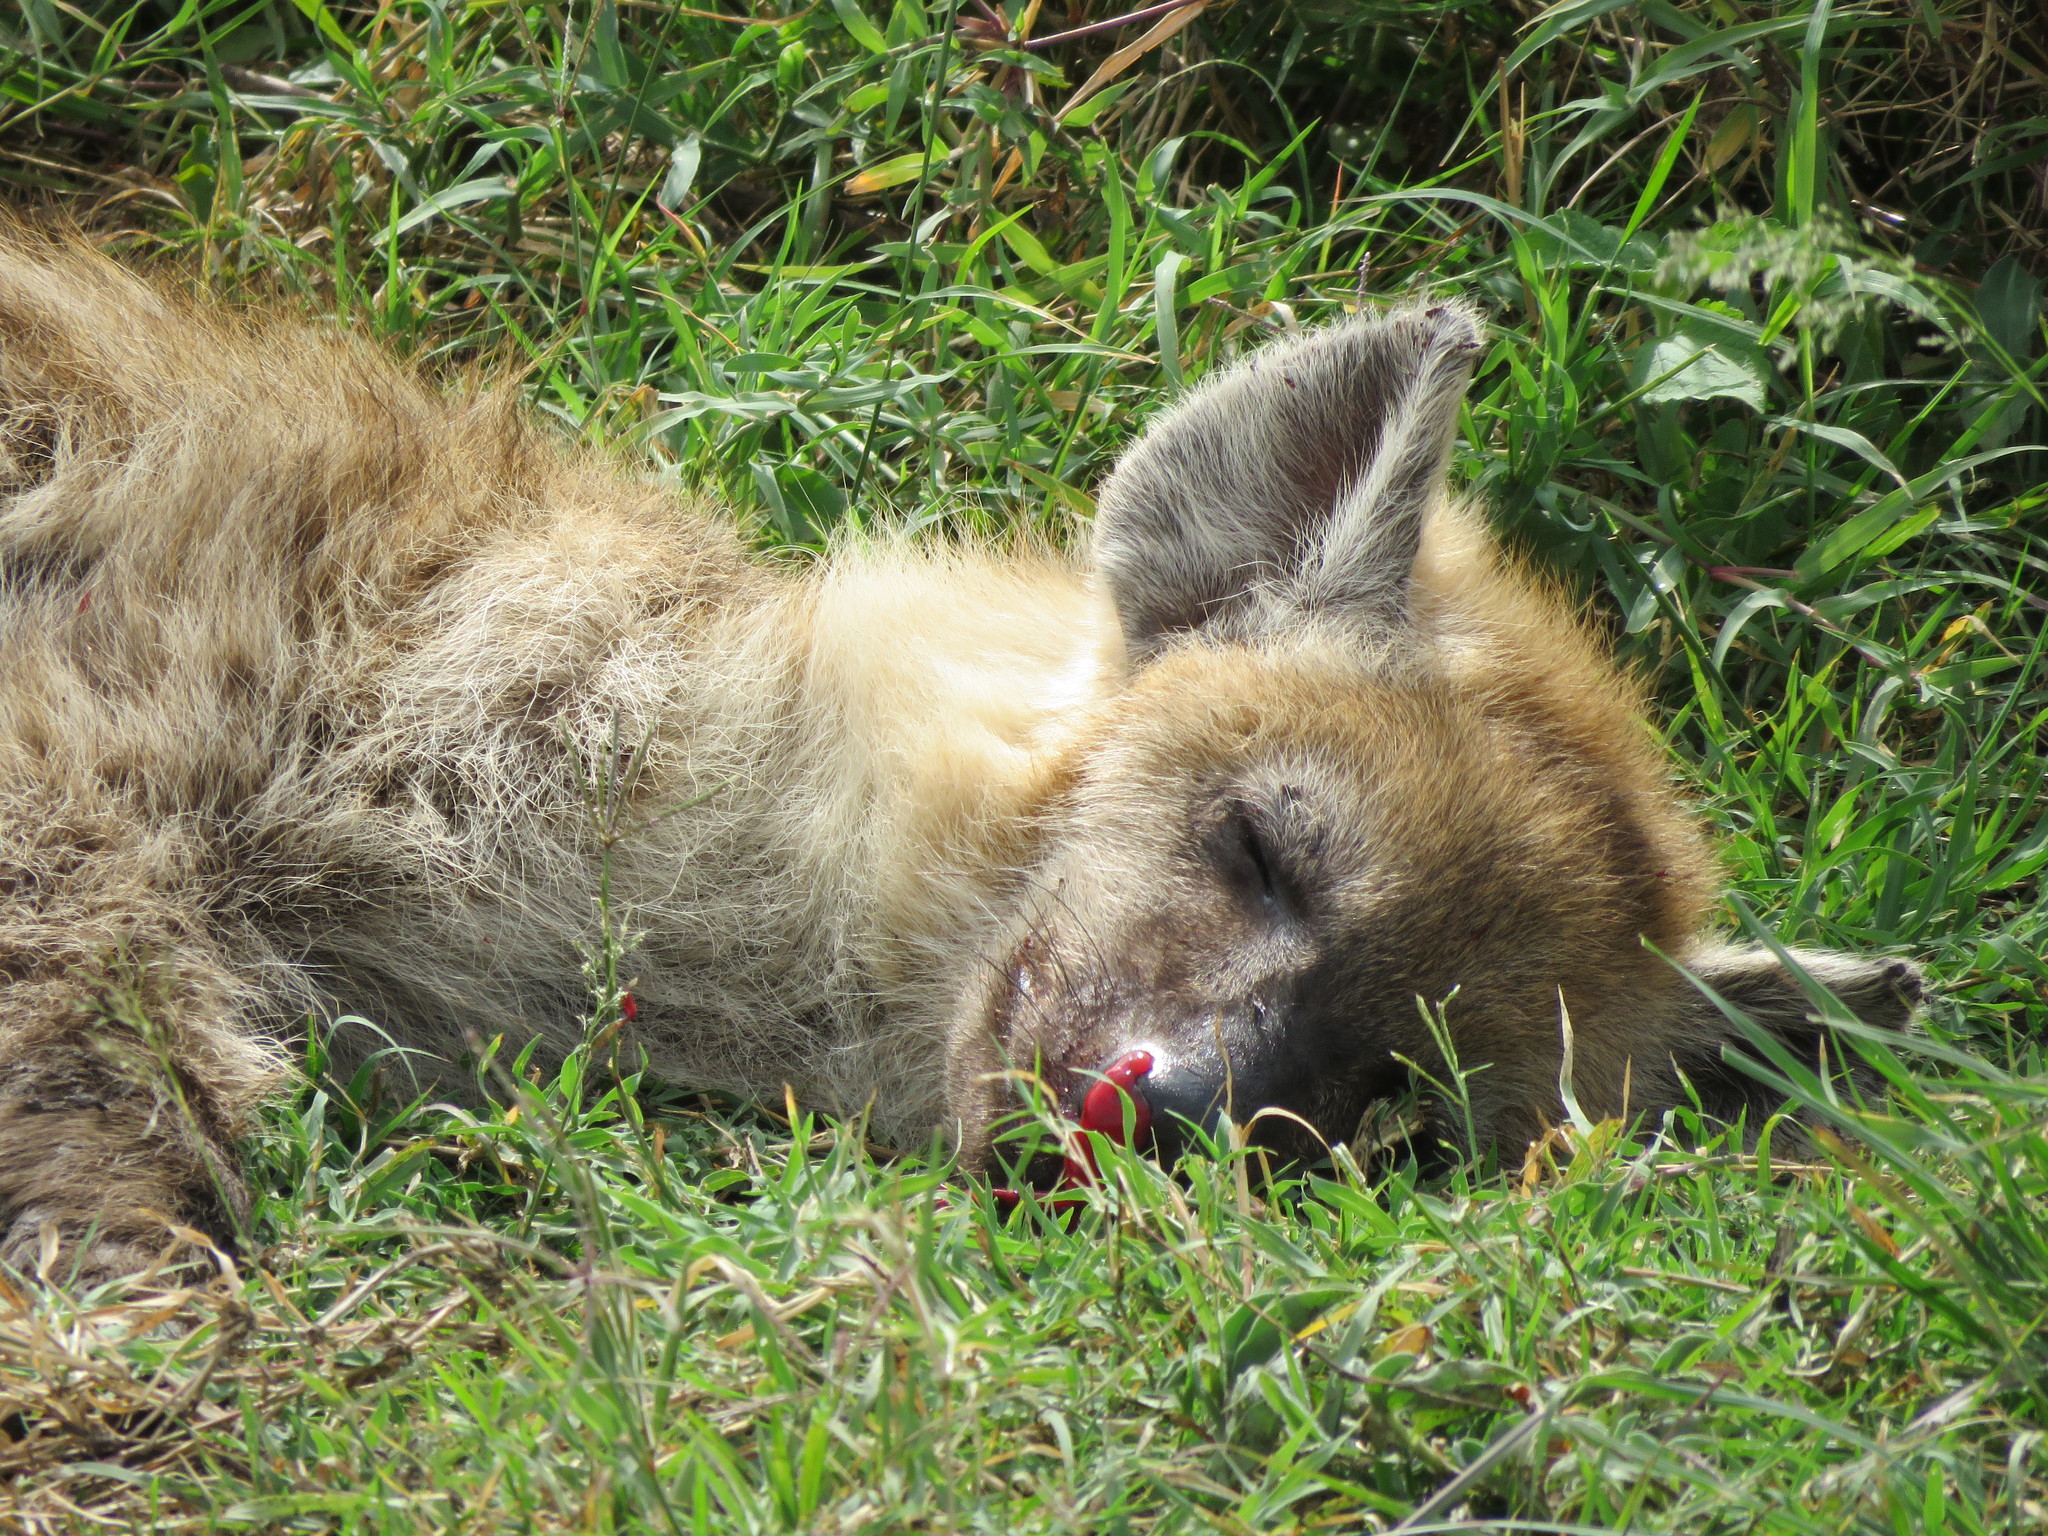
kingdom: Animalia
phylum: Chordata
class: Mammalia
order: Carnivora
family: Hyaenidae
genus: Crocuta
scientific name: Crocuta crocuta
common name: Spotted hyaena
